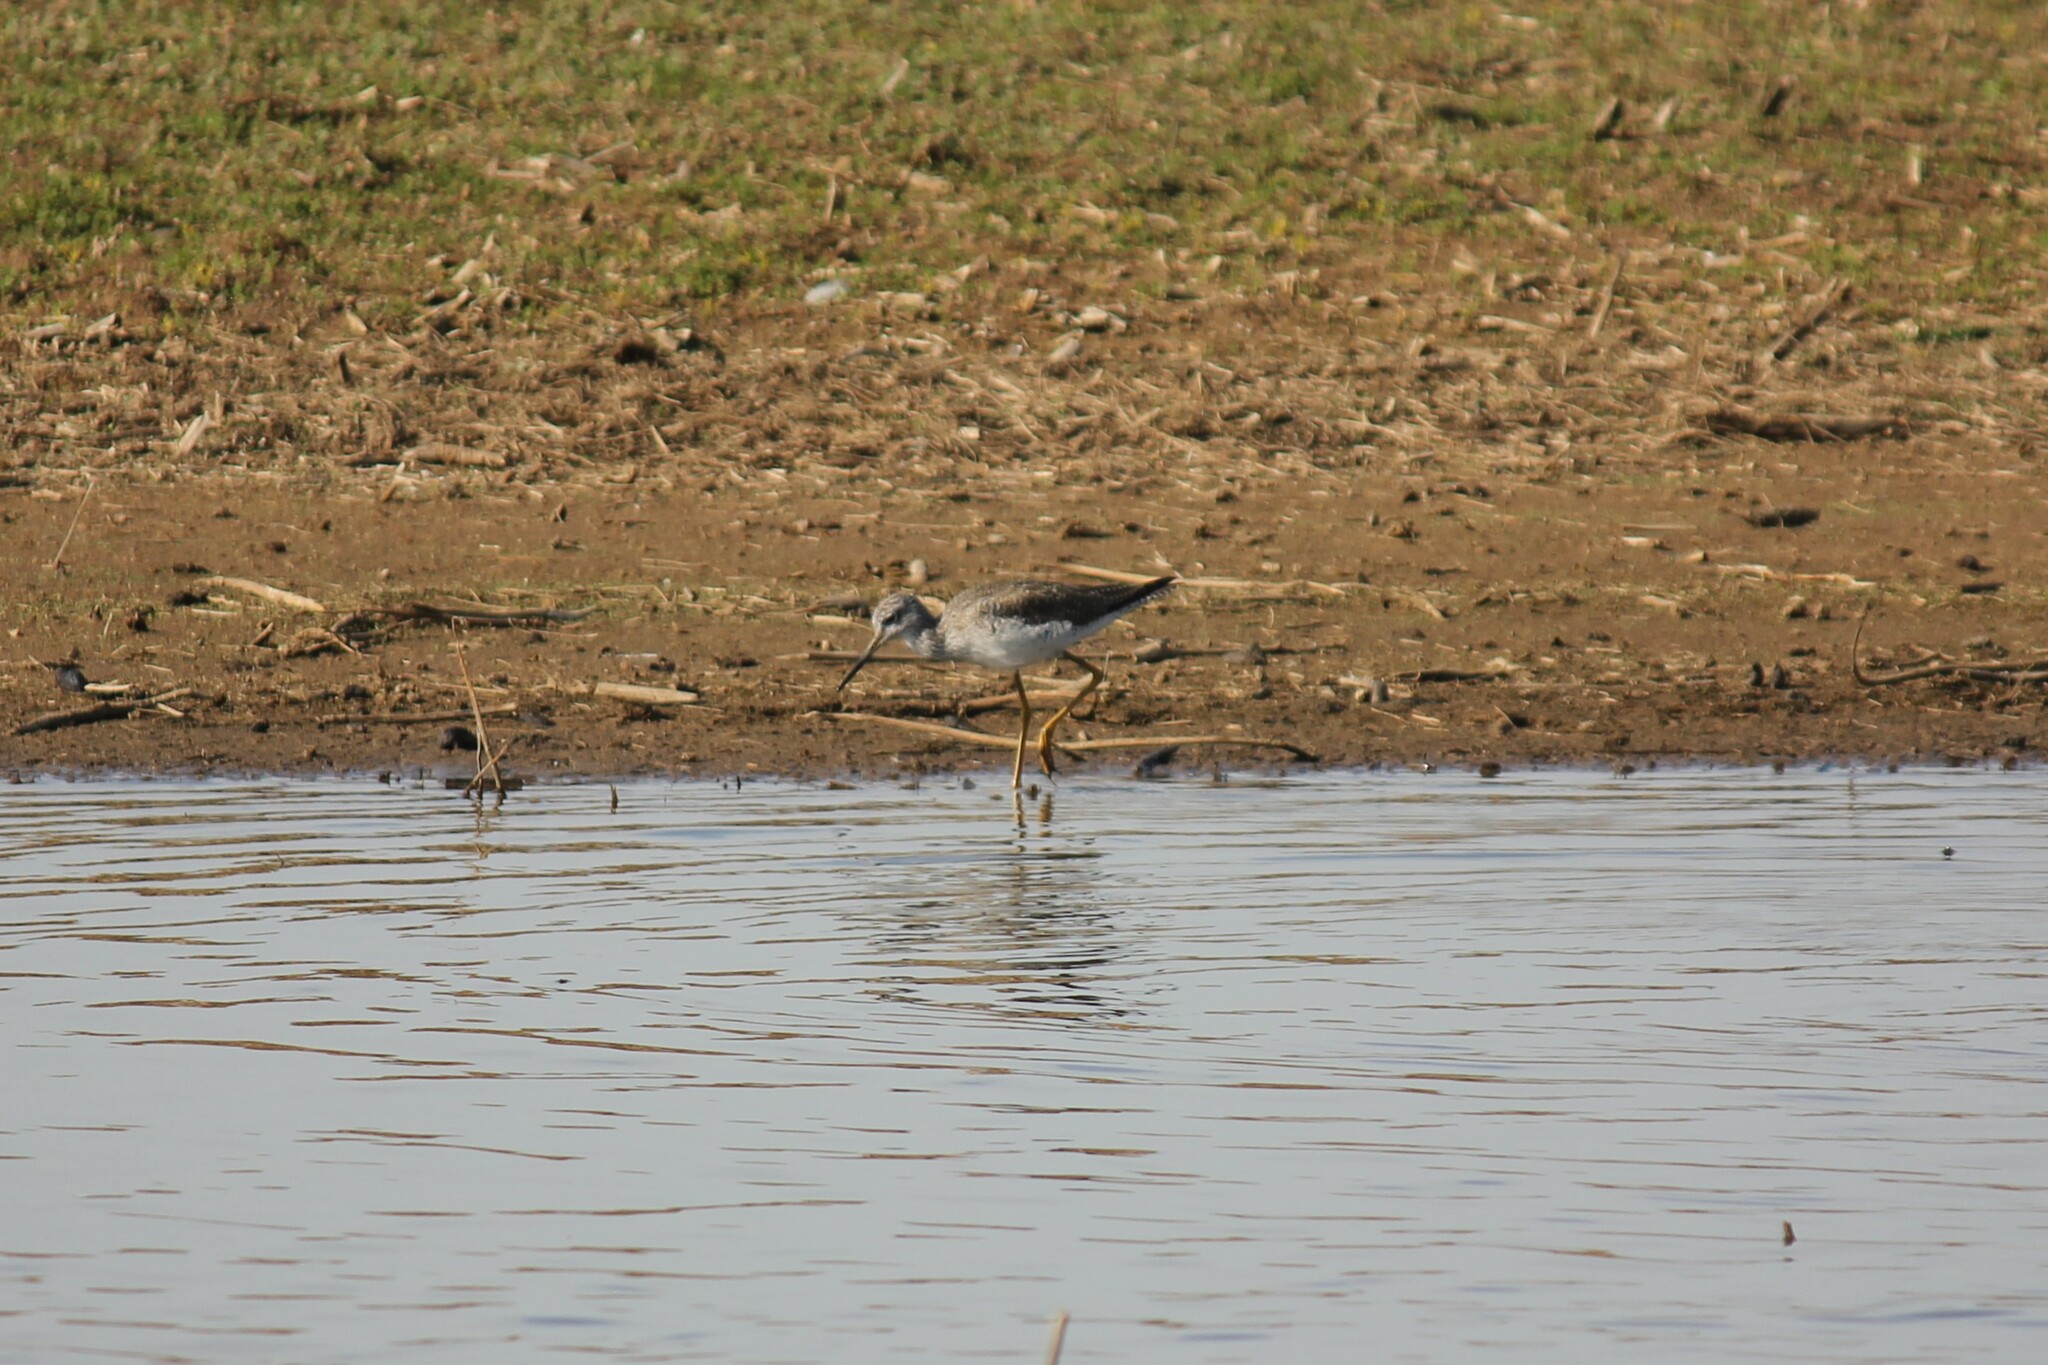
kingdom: Animalia
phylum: Chordata
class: Aves
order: Charadriiformes
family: Scolopacidae
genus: Tringa
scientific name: Tringa melanoleuca
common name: Greater yellowlegs
